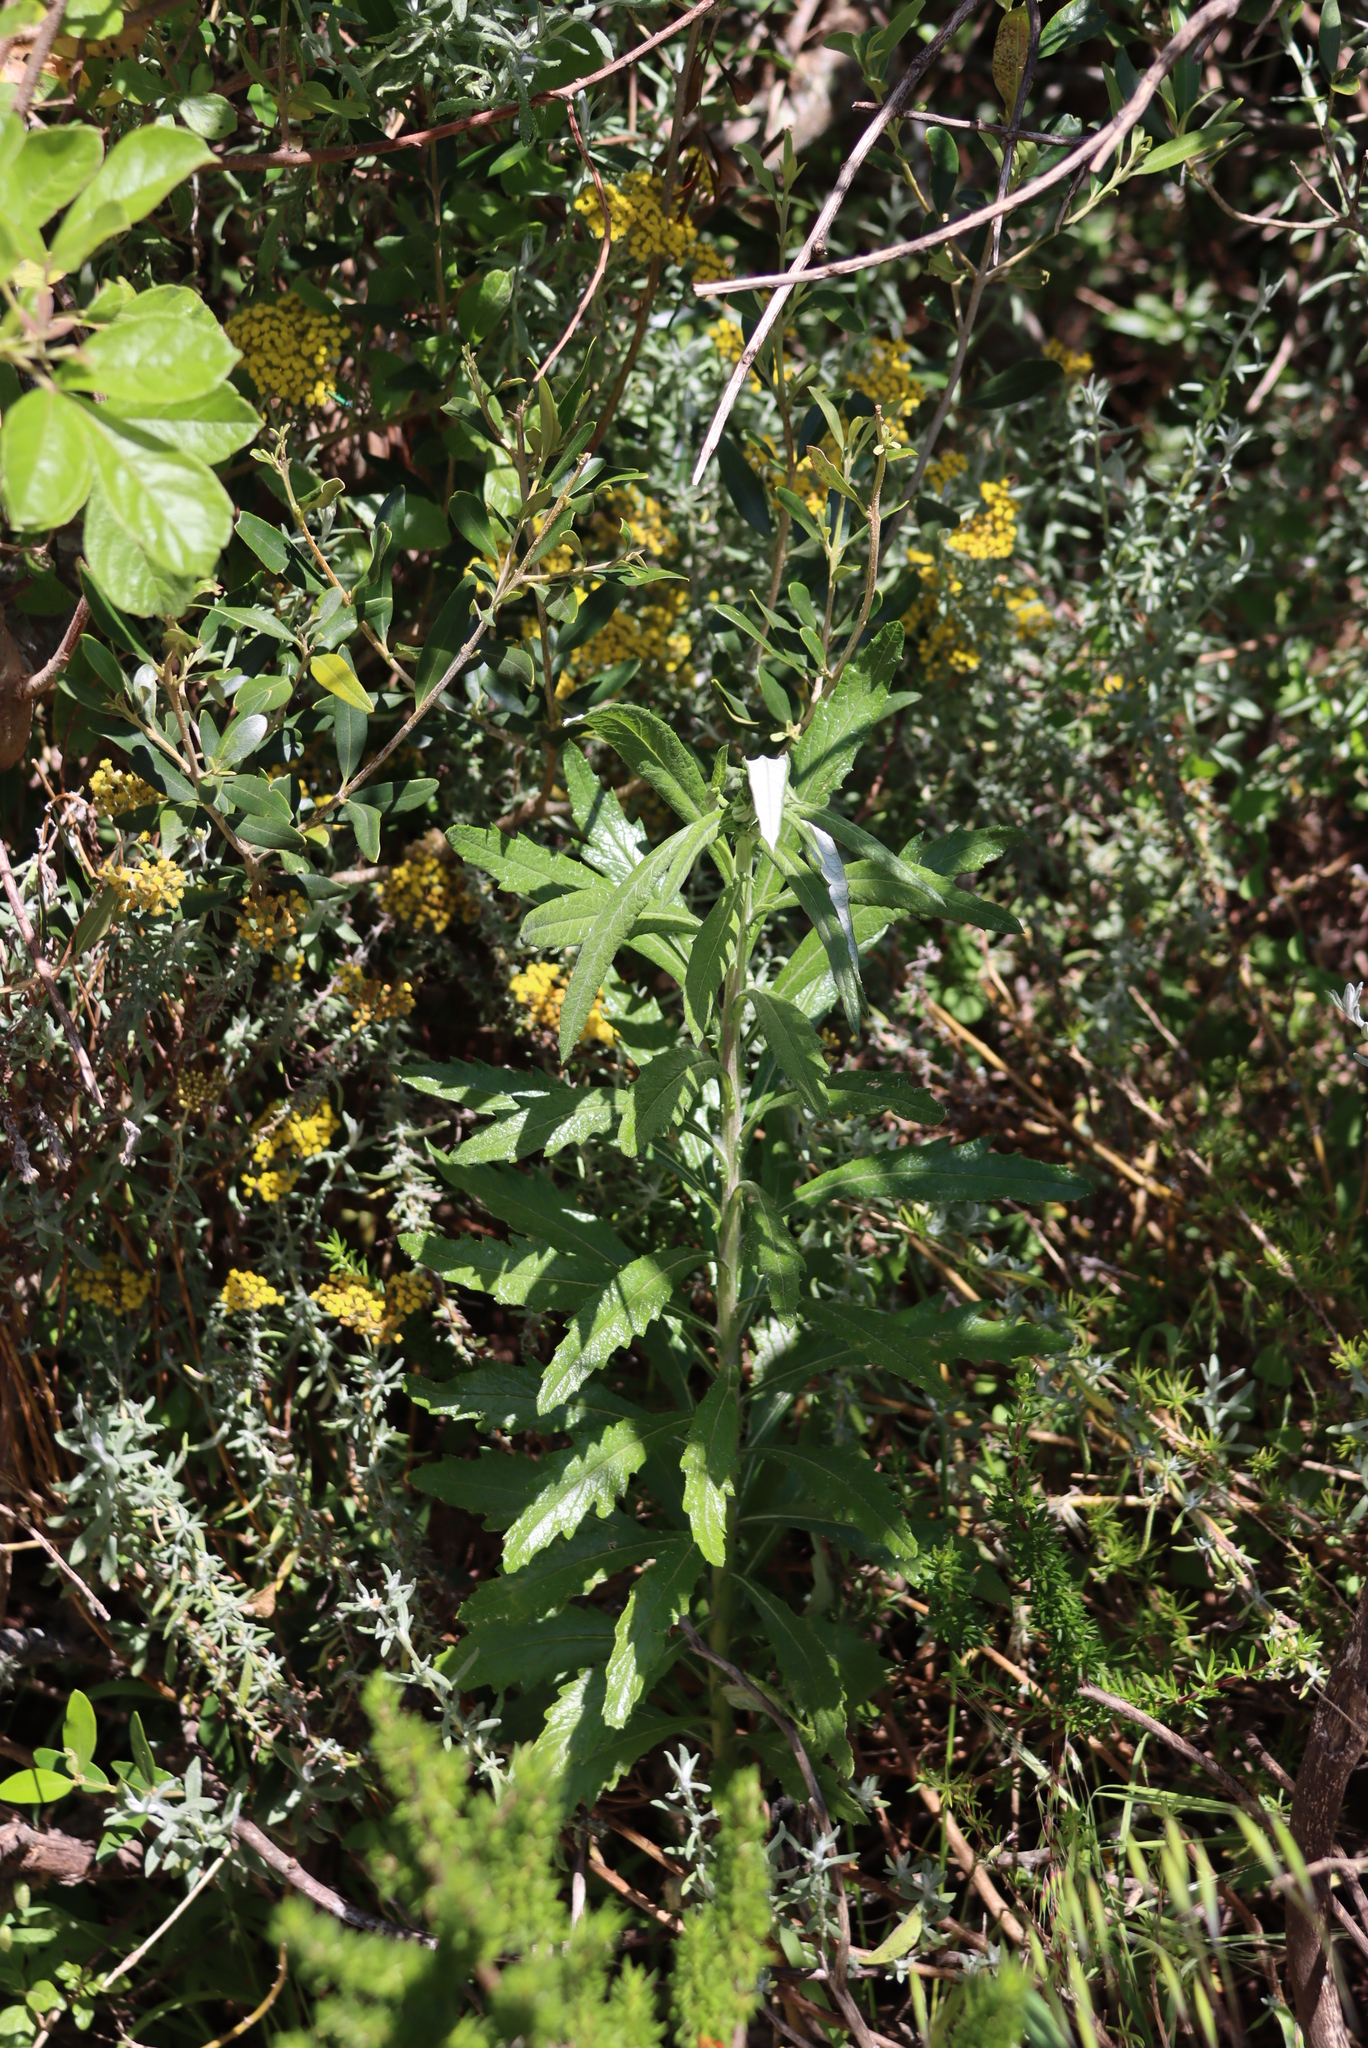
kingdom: Plantae
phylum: Tracheophyta
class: Magnoliopsida
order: Asterales
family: Asteraceae
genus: Senecio
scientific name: Senecio pterophorus
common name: Shoddy ragwort
